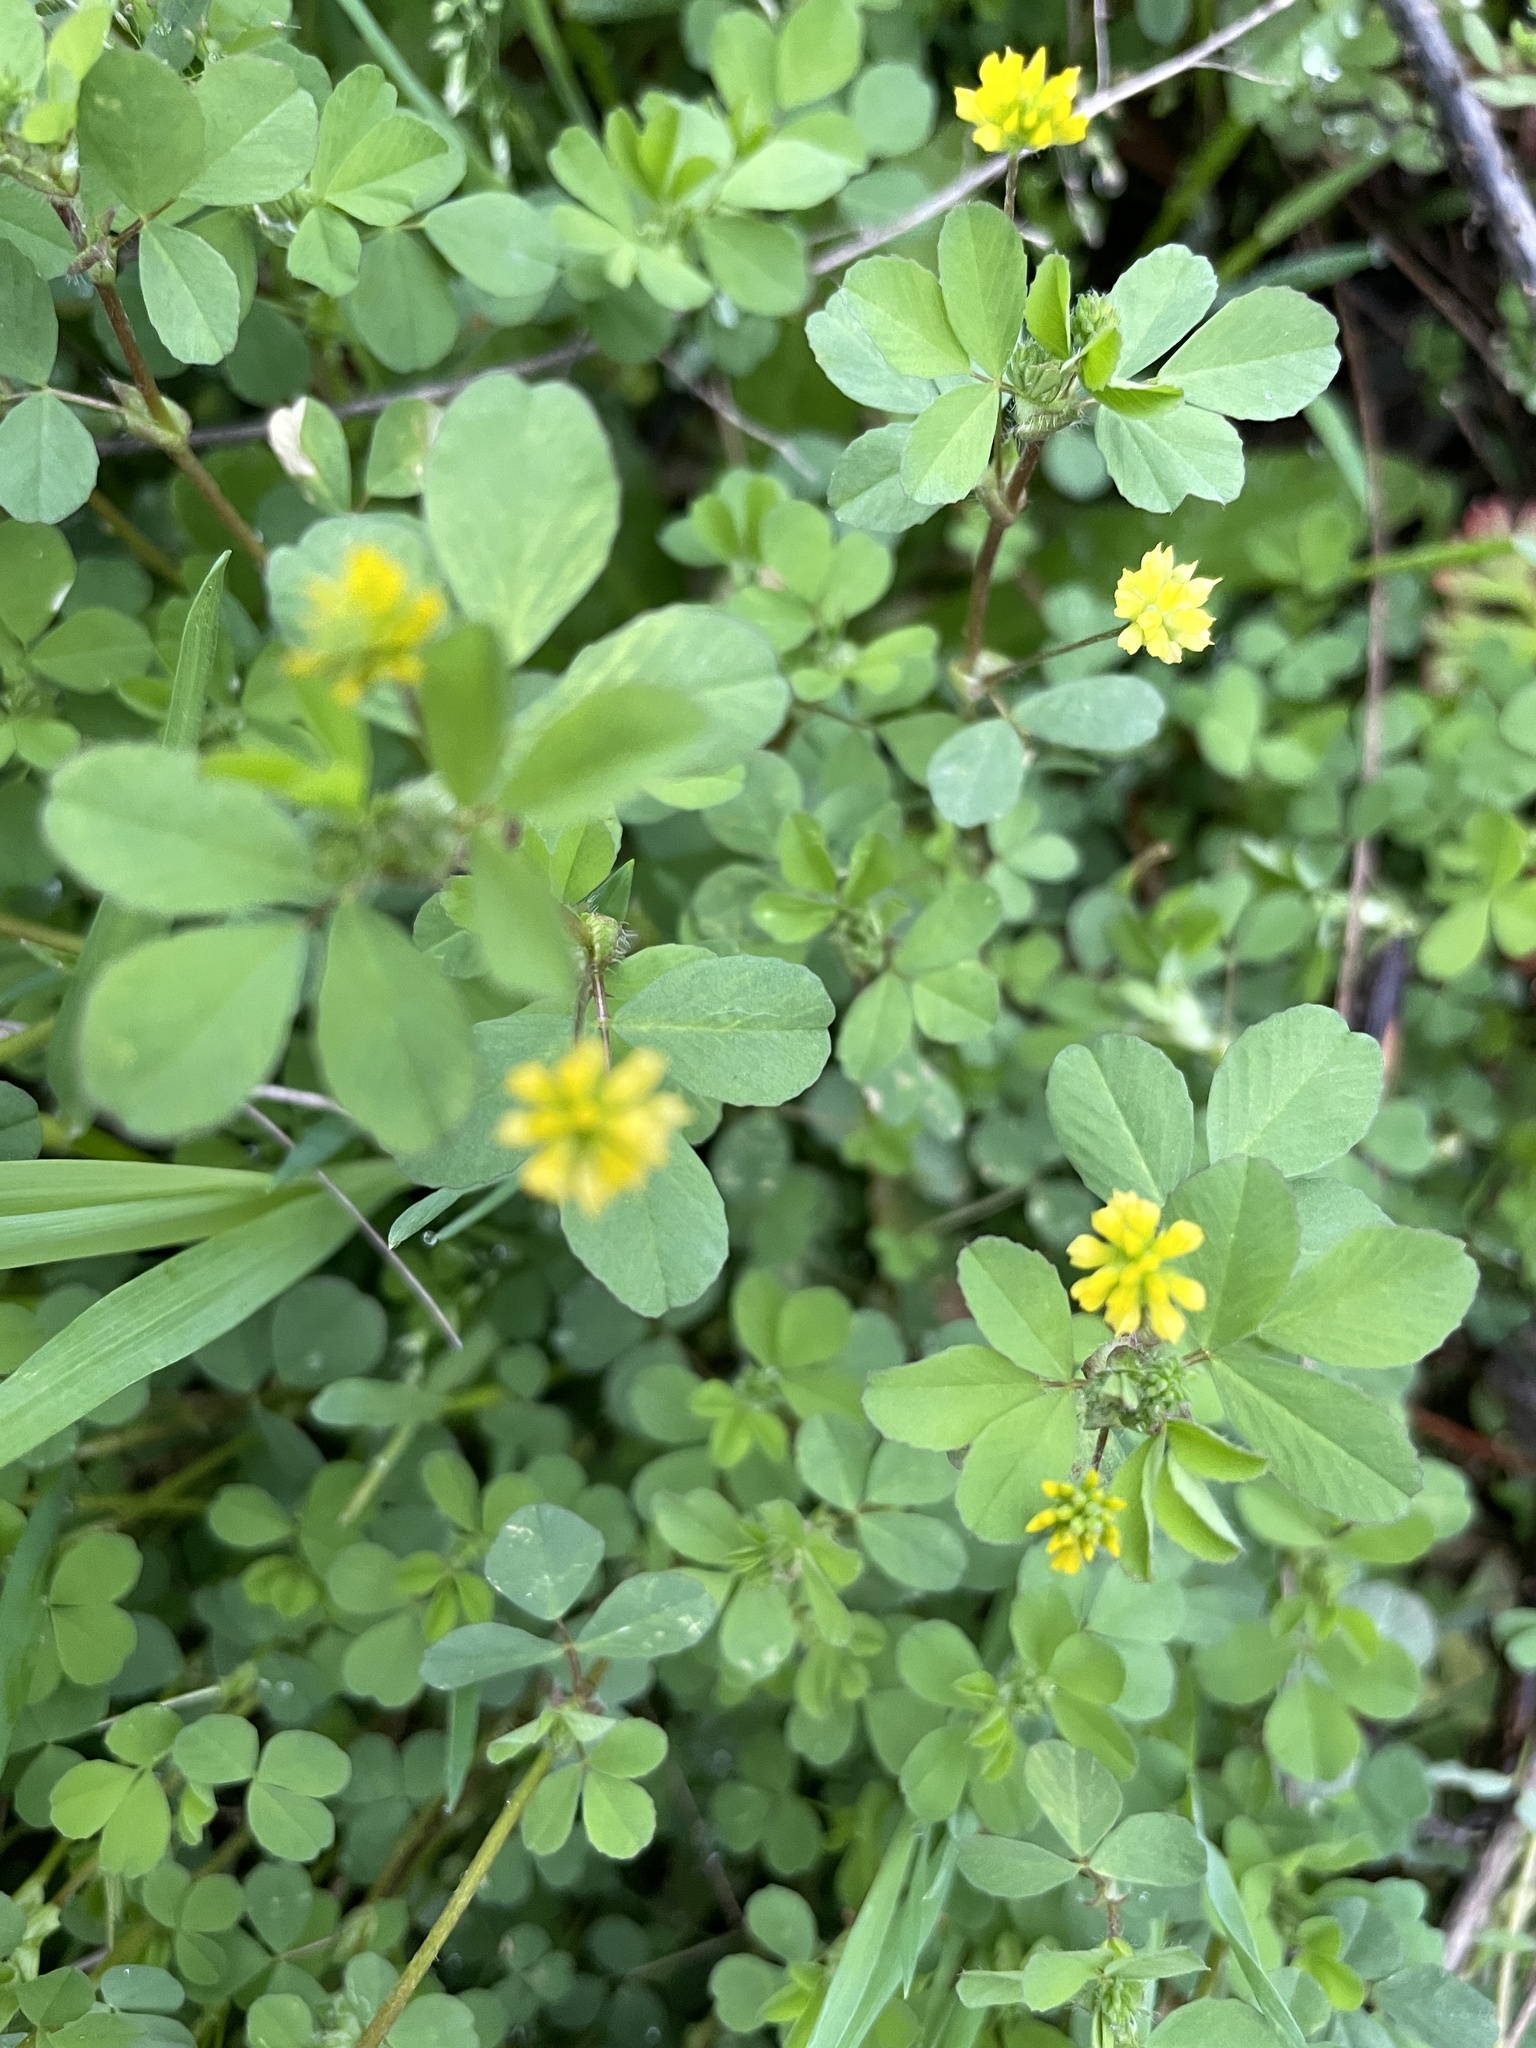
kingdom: Plantae
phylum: Tracheophyta
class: Magnoliopsida
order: Fabales
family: Fabaceae
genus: Trifolium
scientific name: Trifolium campestre
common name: Field clover
